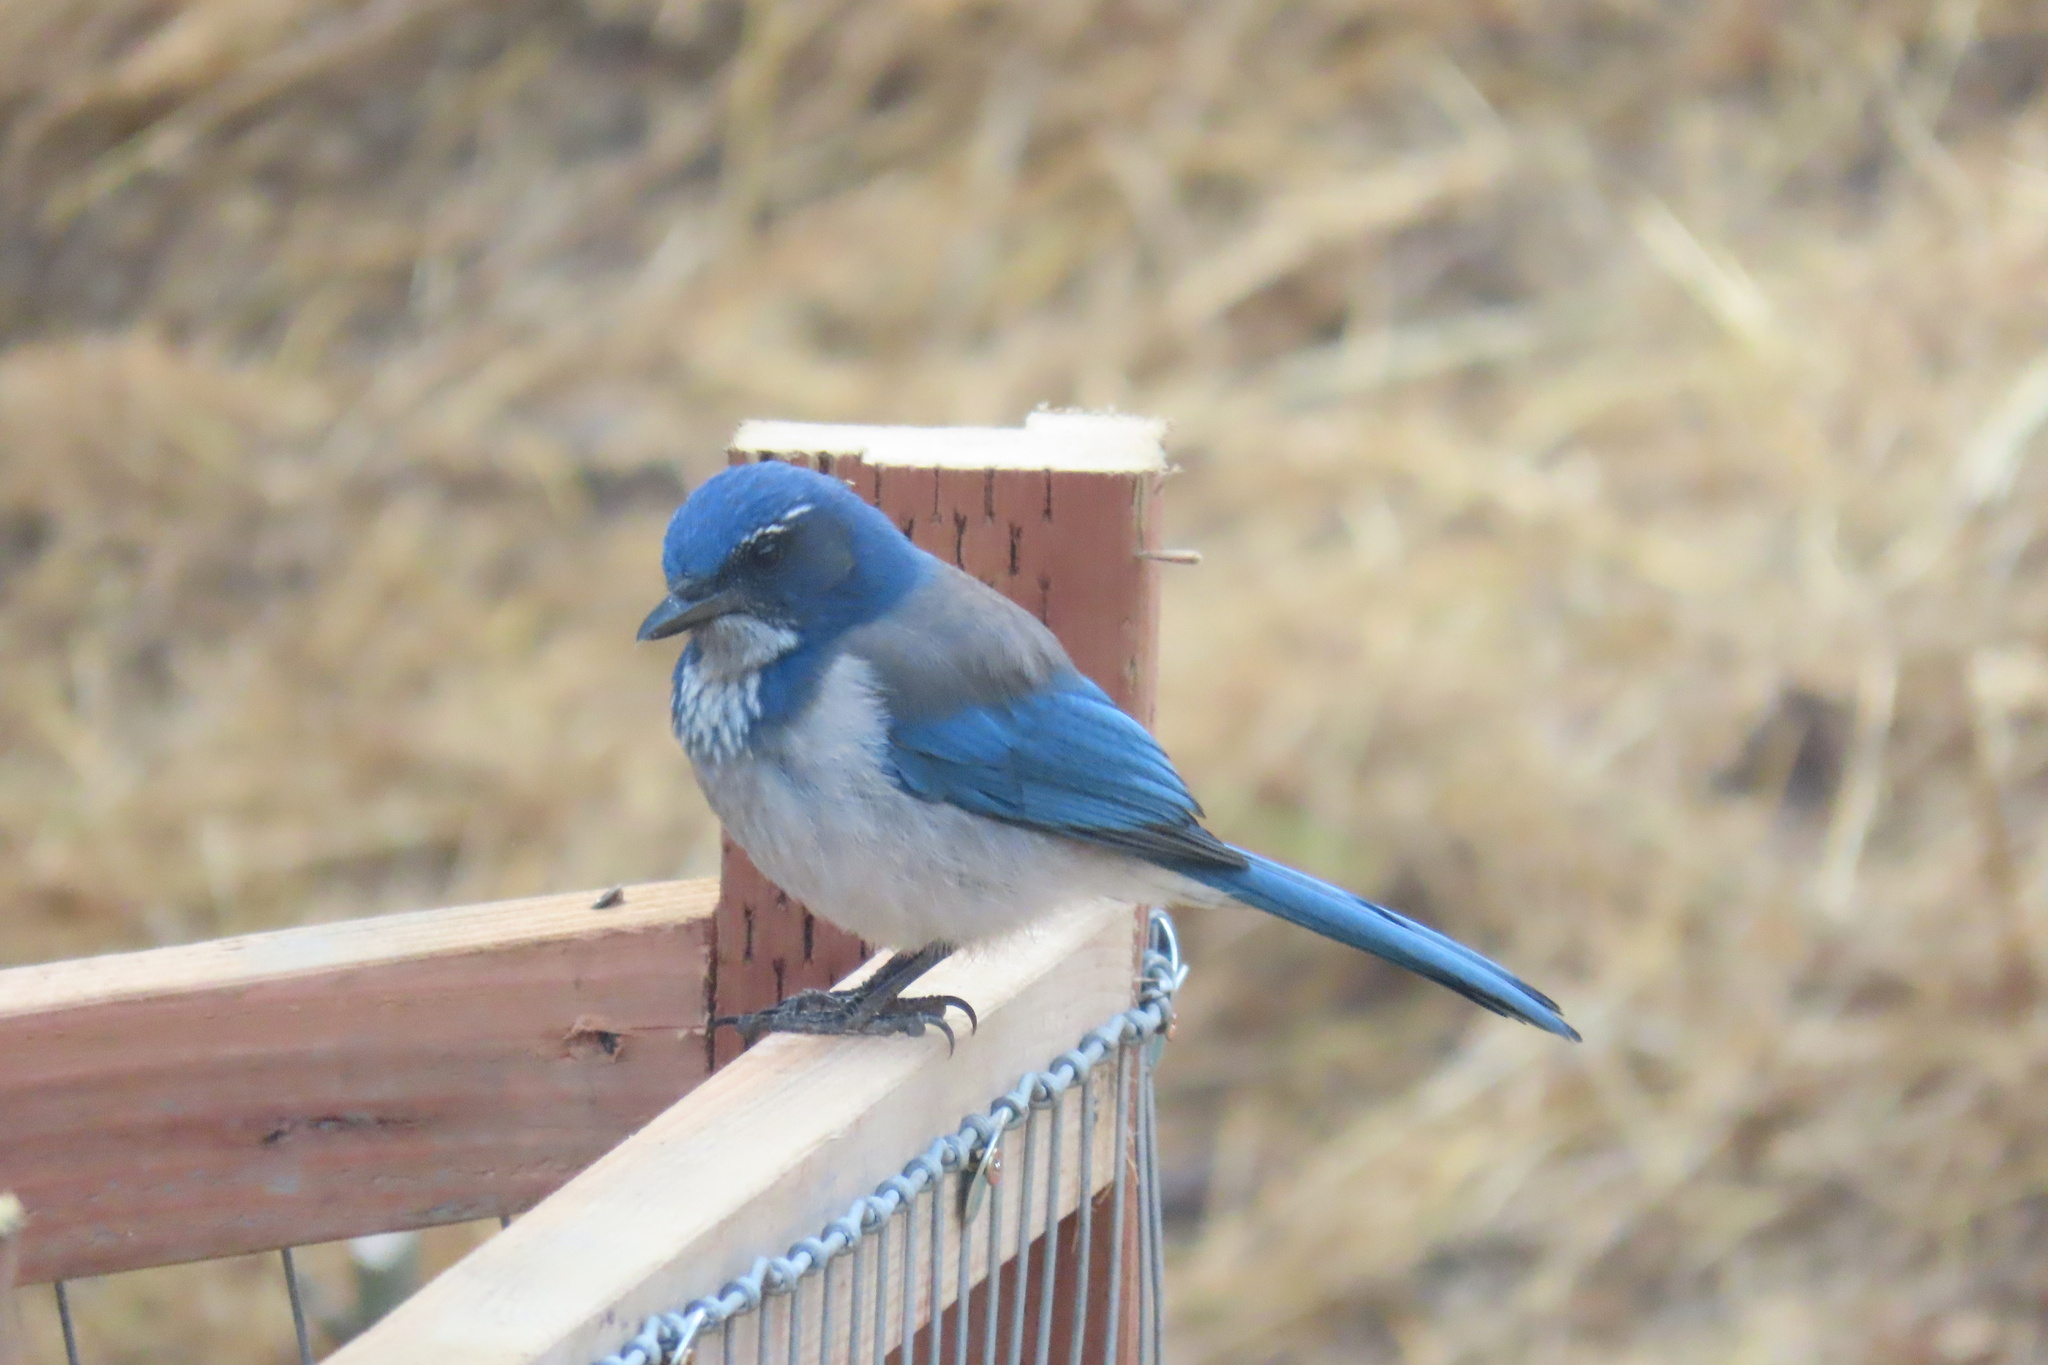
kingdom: Animalia
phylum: Chordata
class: Aves
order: Passeriformes
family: Corvidae
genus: Aphelocoma
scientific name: Aphelocoma californica
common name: California scrub-jay
